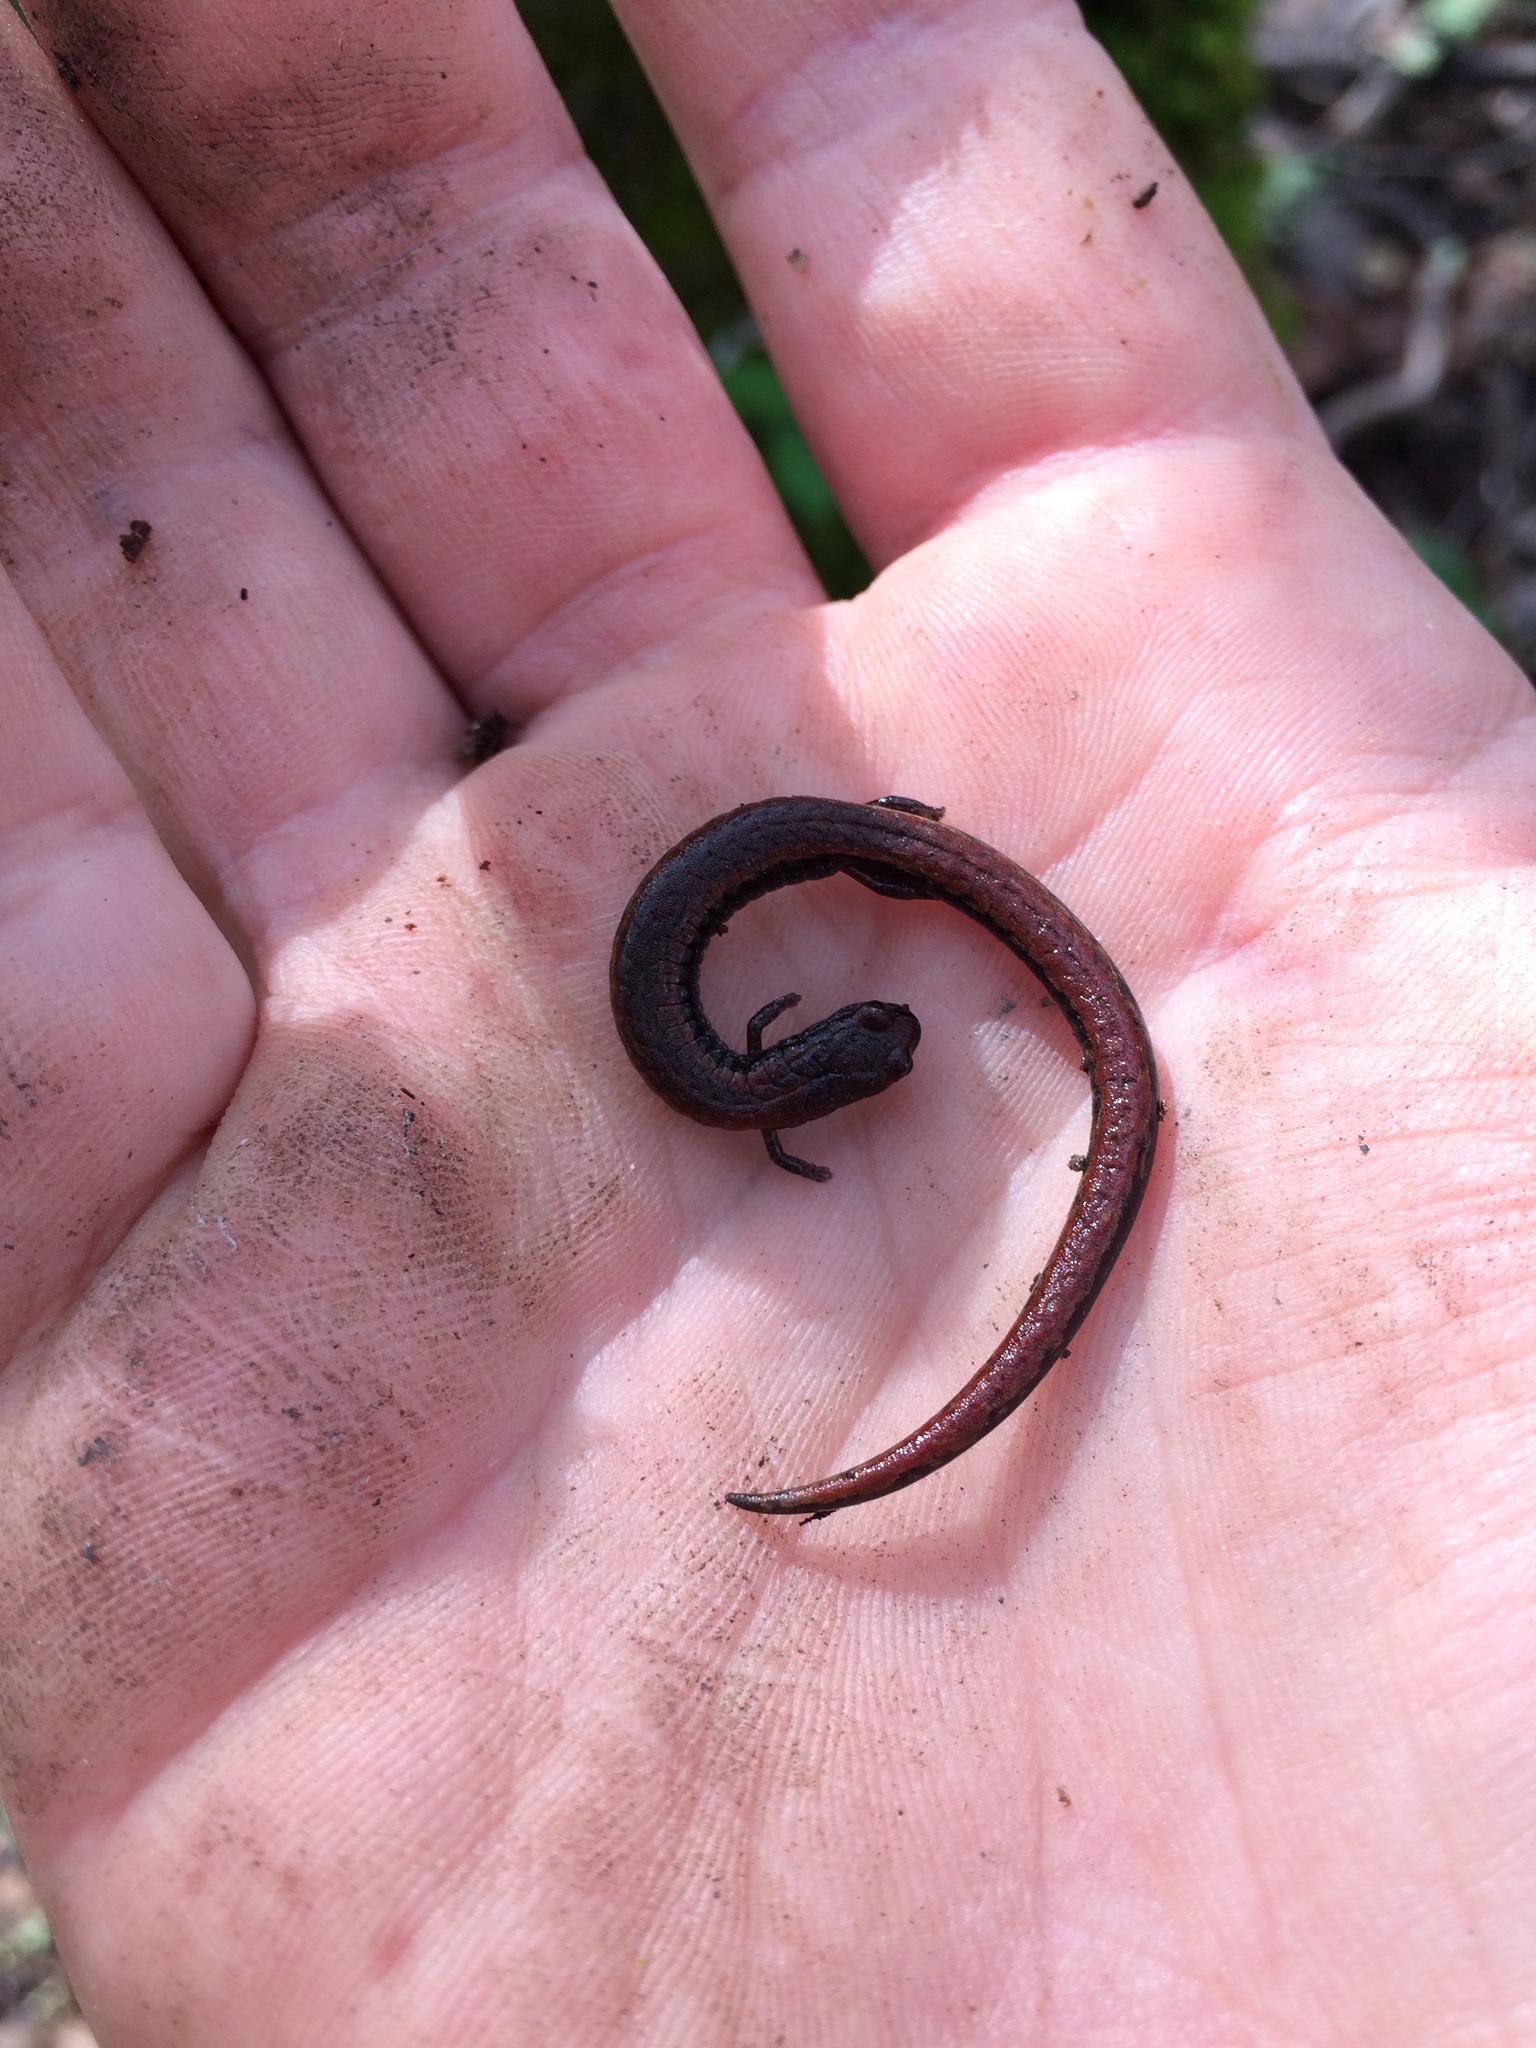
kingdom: Animalia
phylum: Chordata
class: Amphibia
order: Caudata
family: Plethodontidae
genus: Batrachoseps
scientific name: Batrachoseps attenuatus
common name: California slender salamander
